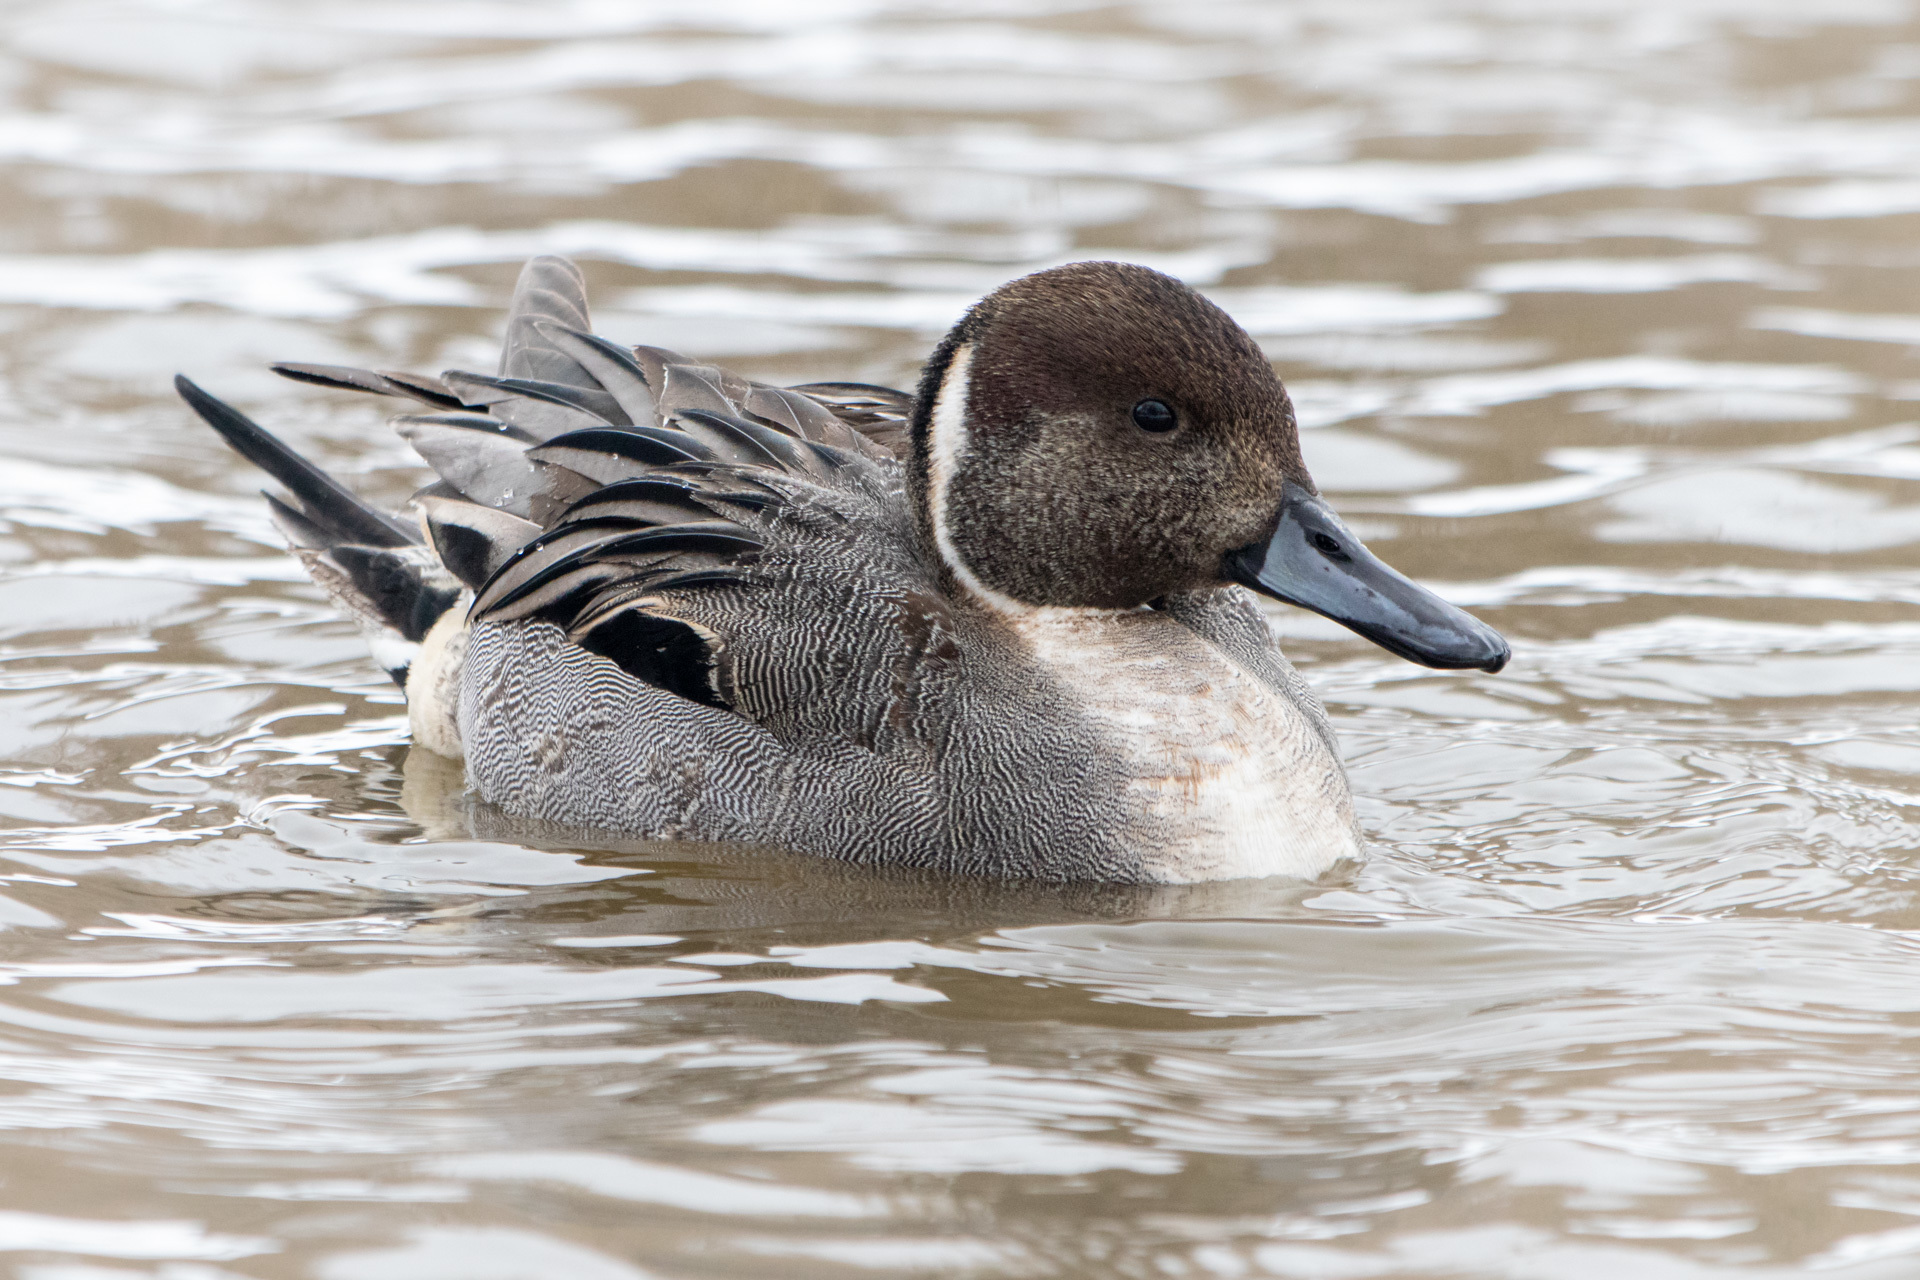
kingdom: Animalia
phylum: Chordata
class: Aves
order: Anseriformes
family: Anatidae
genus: Anas
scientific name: Anas acuta
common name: Northern pintail
